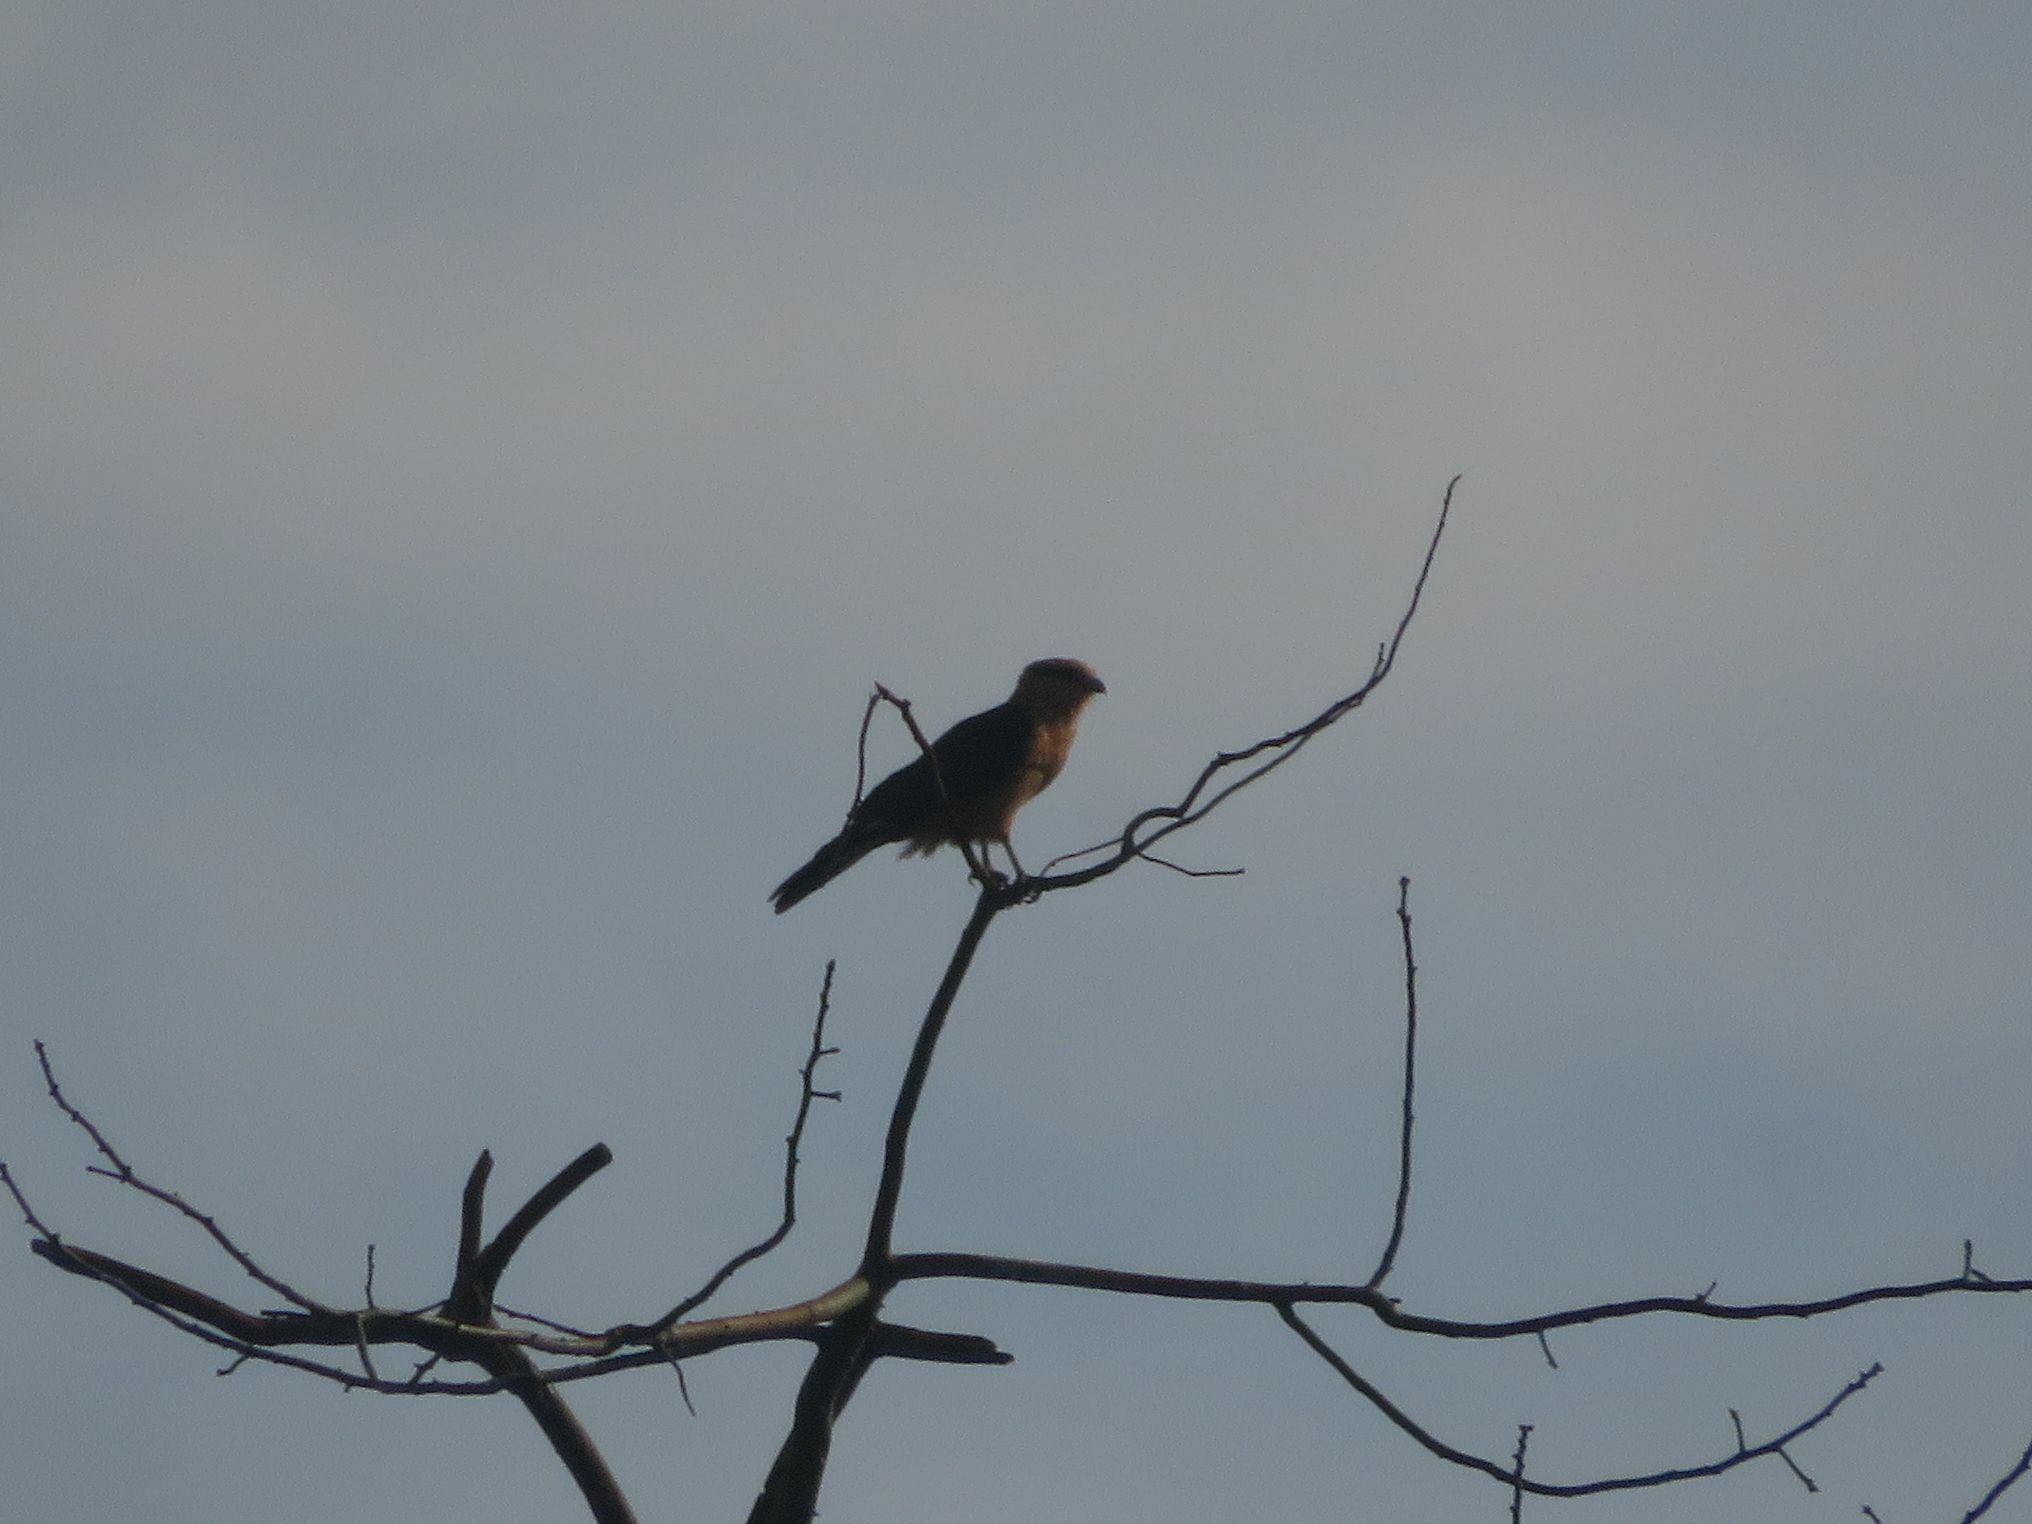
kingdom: Animalia
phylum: Chordata
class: Aves
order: Falconiformes
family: Falconidae
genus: Daptrius
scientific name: Daptrius
